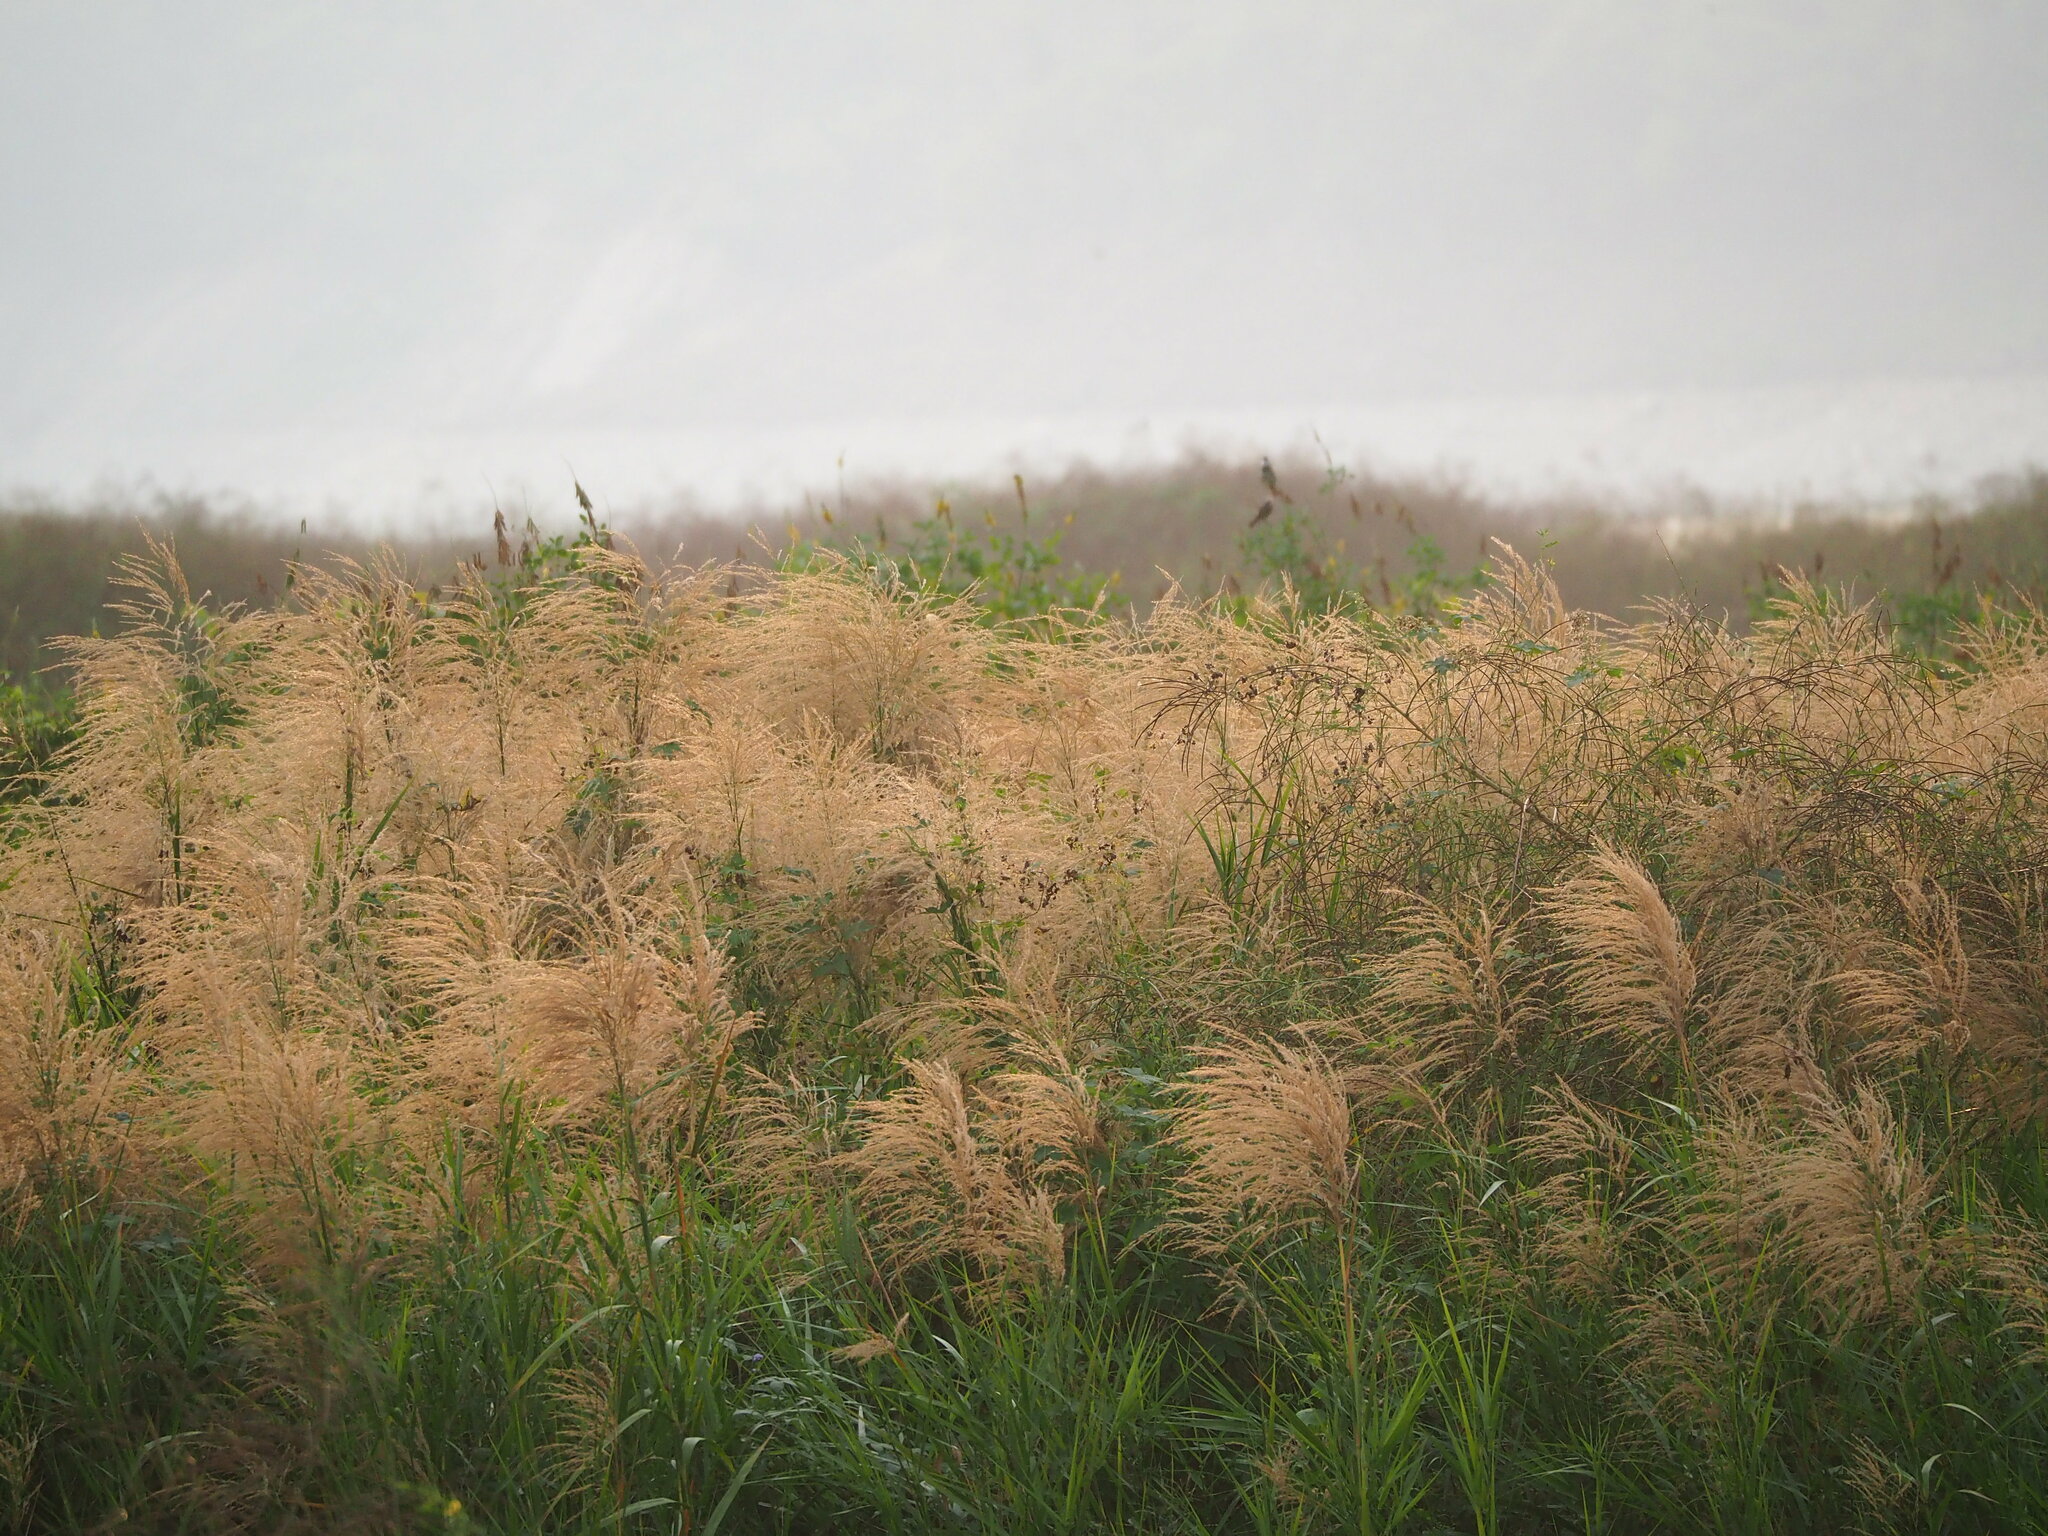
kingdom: Plantae
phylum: Tracheophyta
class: Liliopsida
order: Poales
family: Poaceae
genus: Phragmites
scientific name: Phragmites karka
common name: Tropical reed
